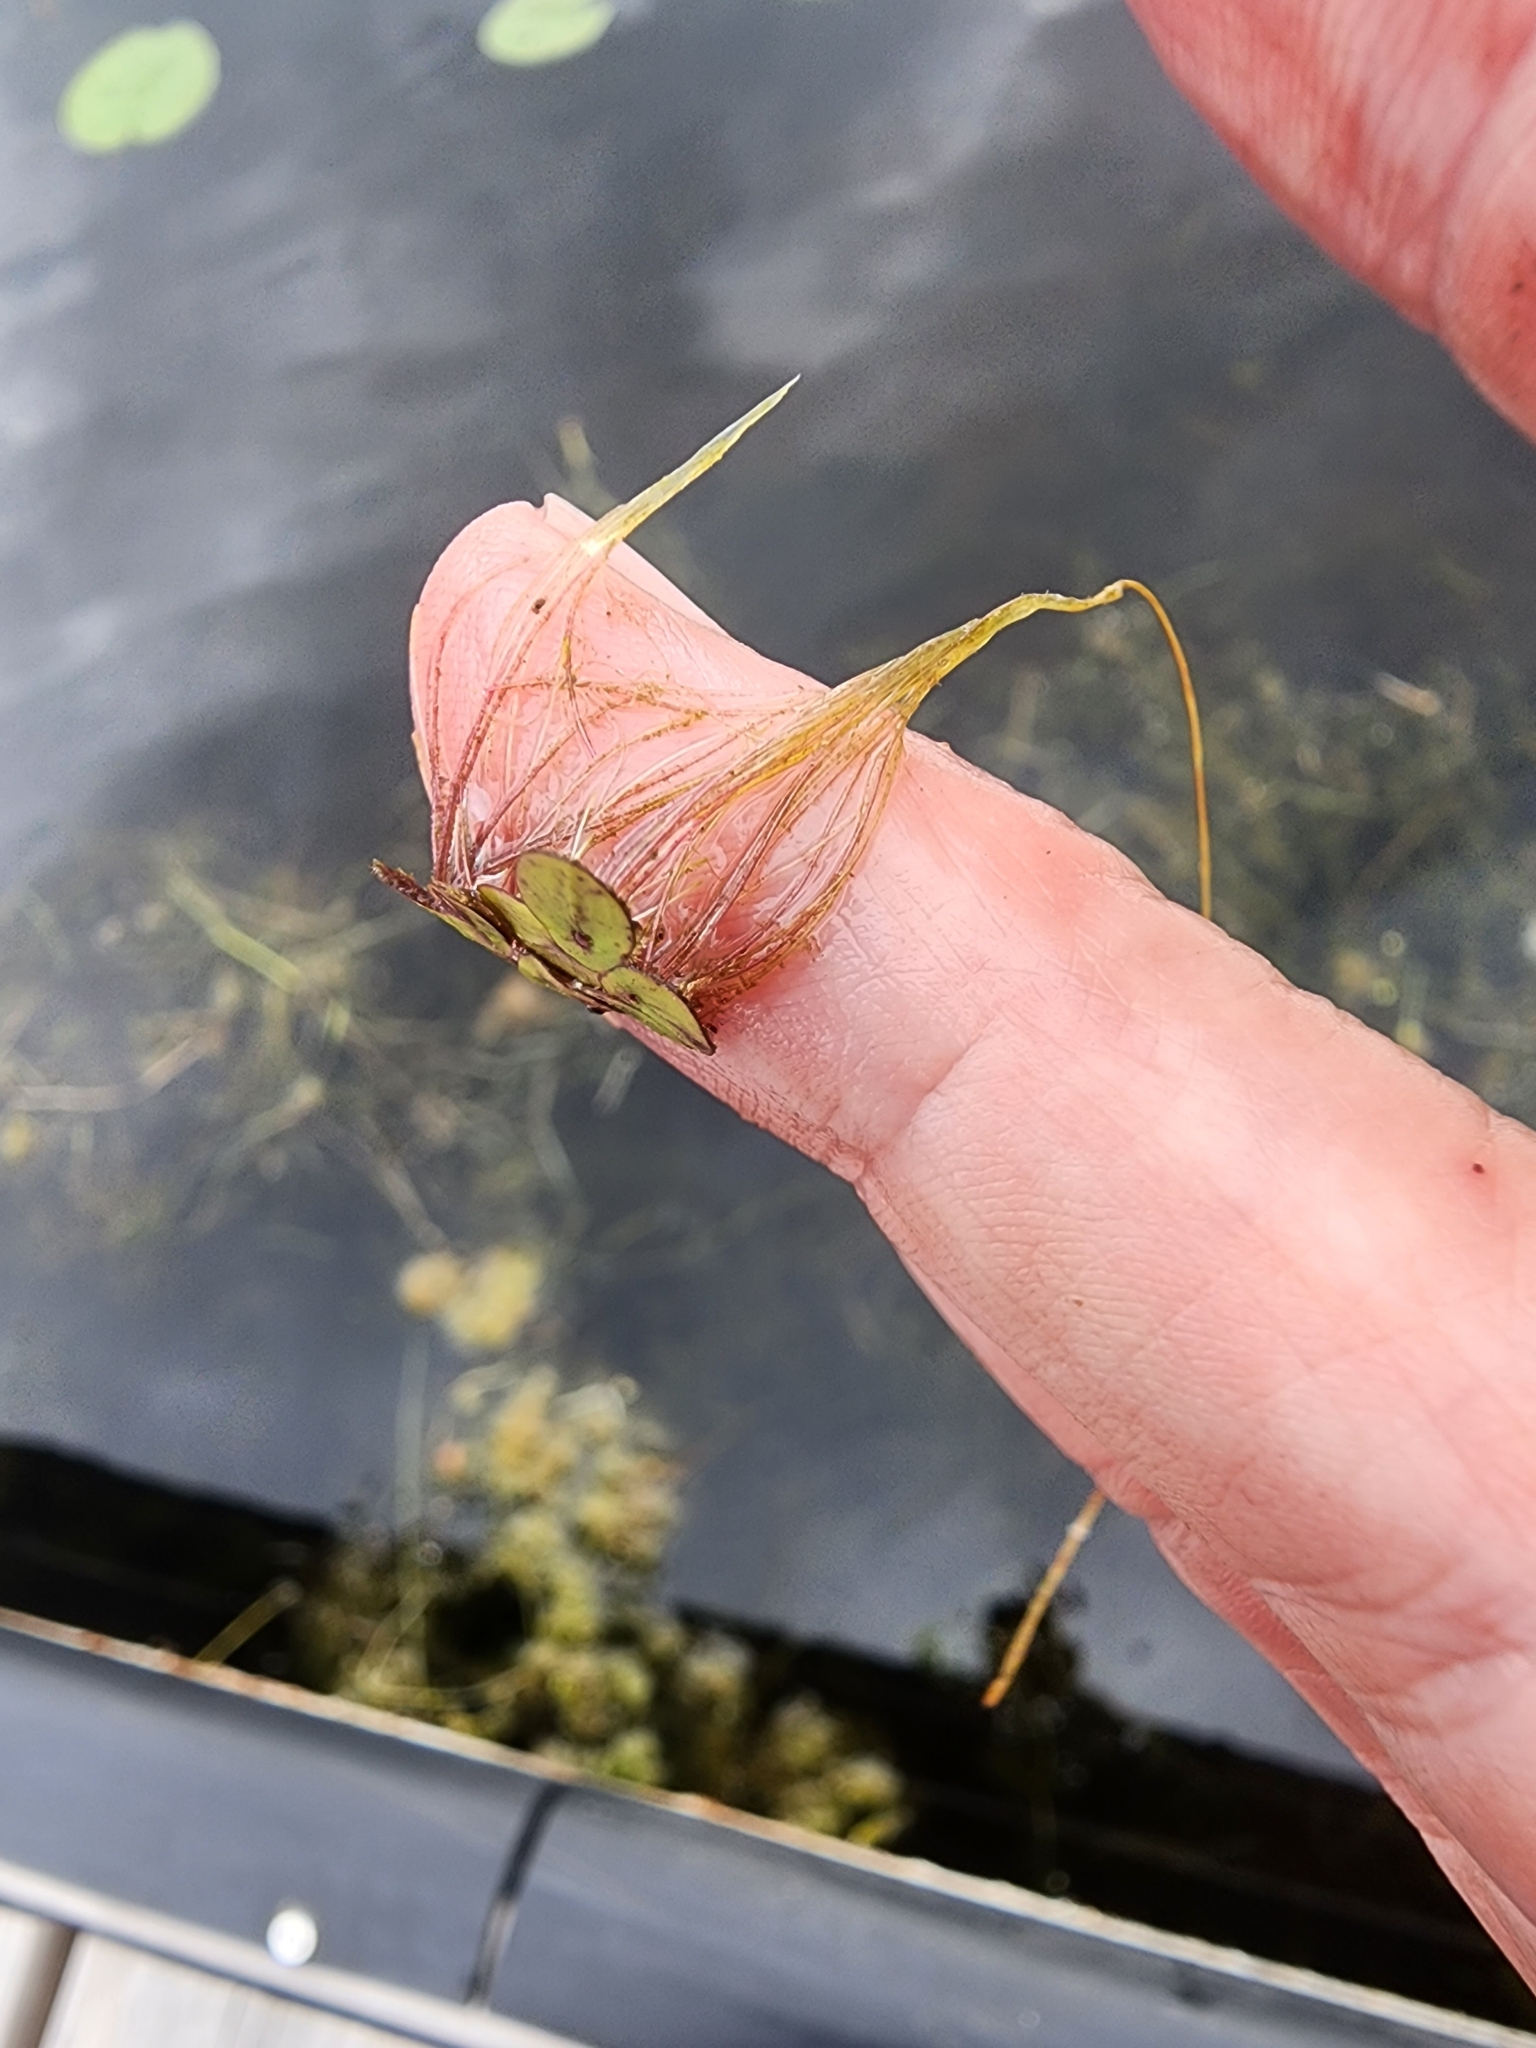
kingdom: Plantae
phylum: Tracheophyta
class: Liliopsida
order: Alismatales
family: Araceae
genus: Spirodela
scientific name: Spirodela polyrhiza
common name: Great duckweed
